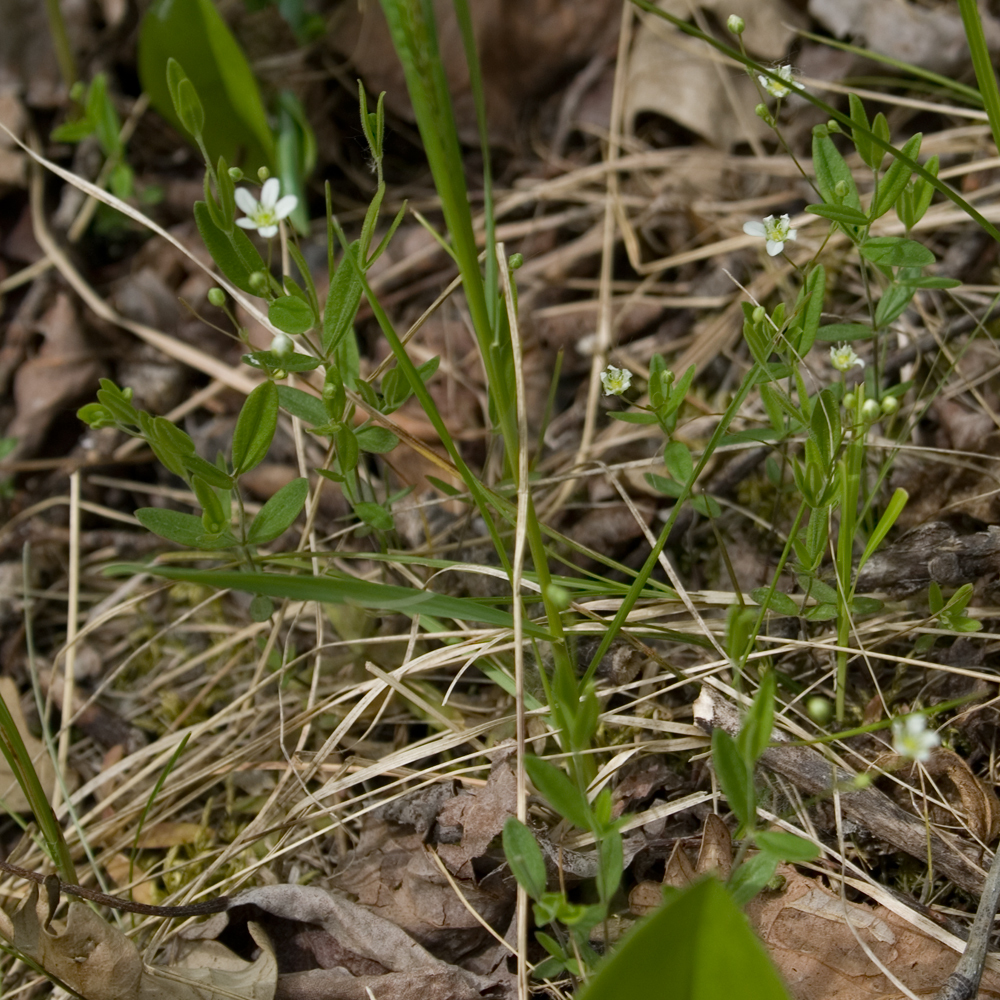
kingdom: Plantae
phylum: Tracheophyta
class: Magnoliopsida
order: Caryophyllales
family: Caryophyllaceae
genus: Moehringia
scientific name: Moehringia lateriflora
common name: Blunt-leaved sandwort
